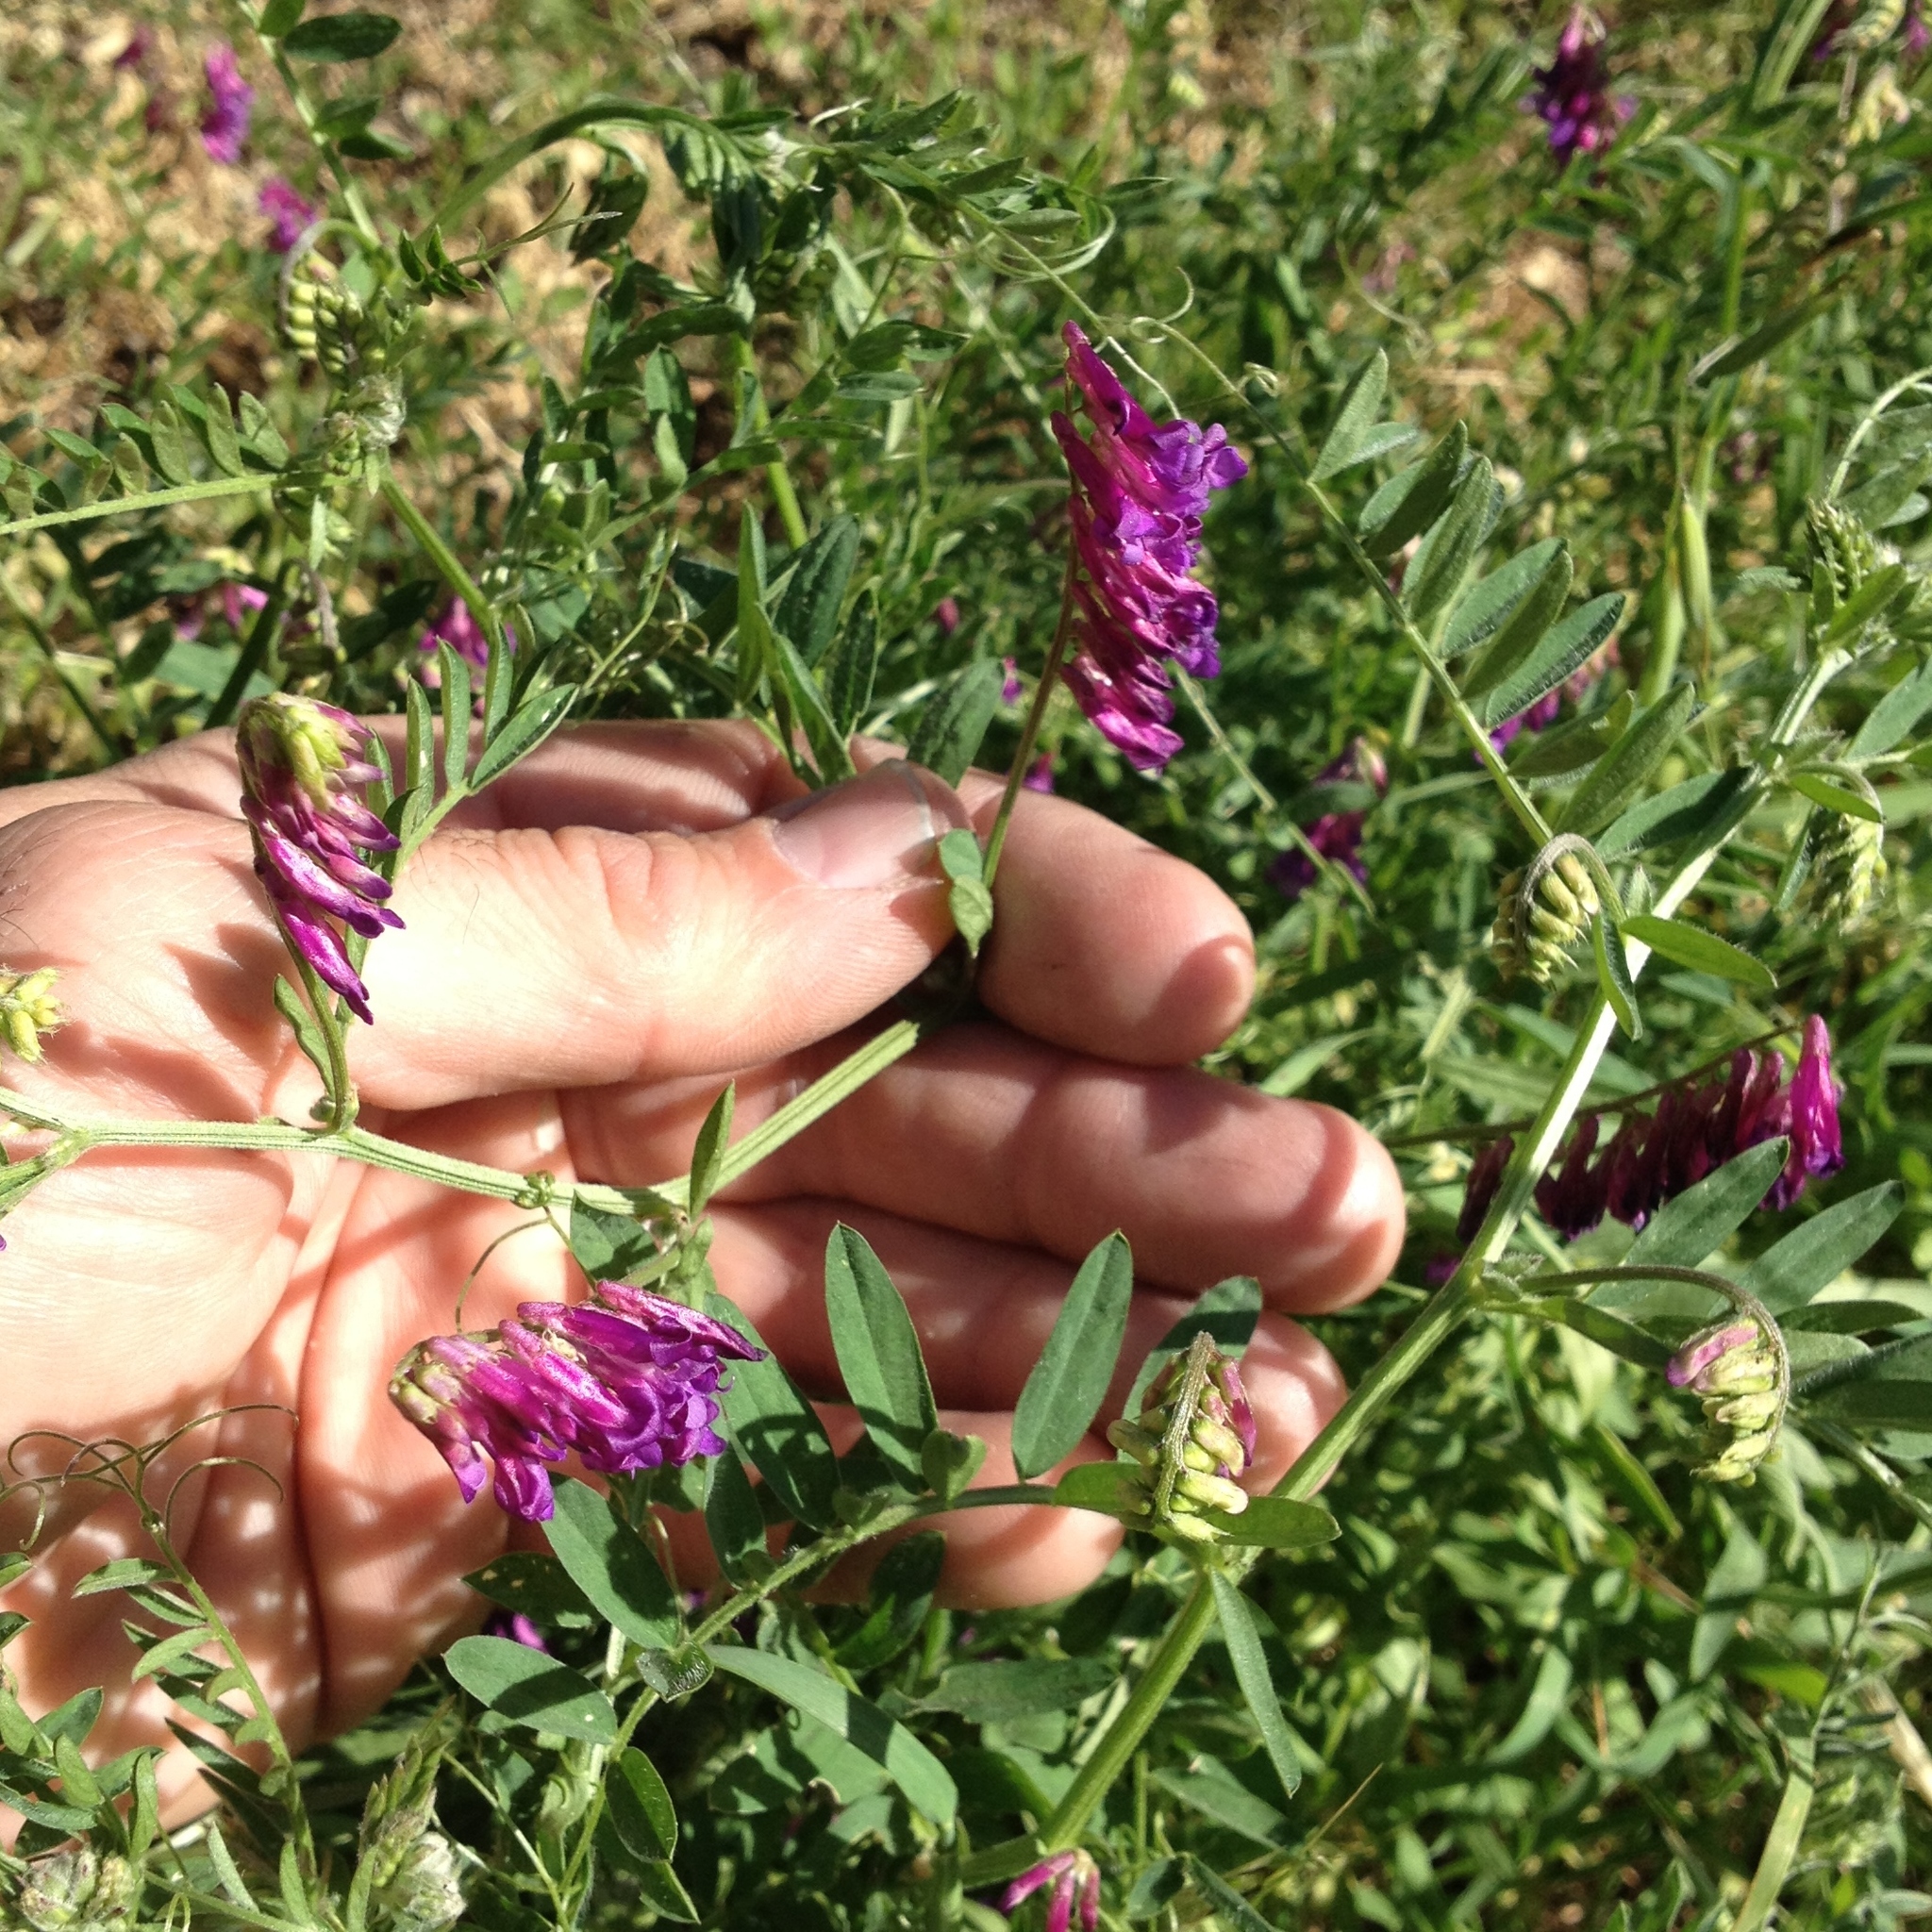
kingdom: Plantae
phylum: Tracheophyta
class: Magnoliopsida
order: Fabales
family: Fabaceae
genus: Vicia
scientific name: Vicia villosa
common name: Fodder vetch
